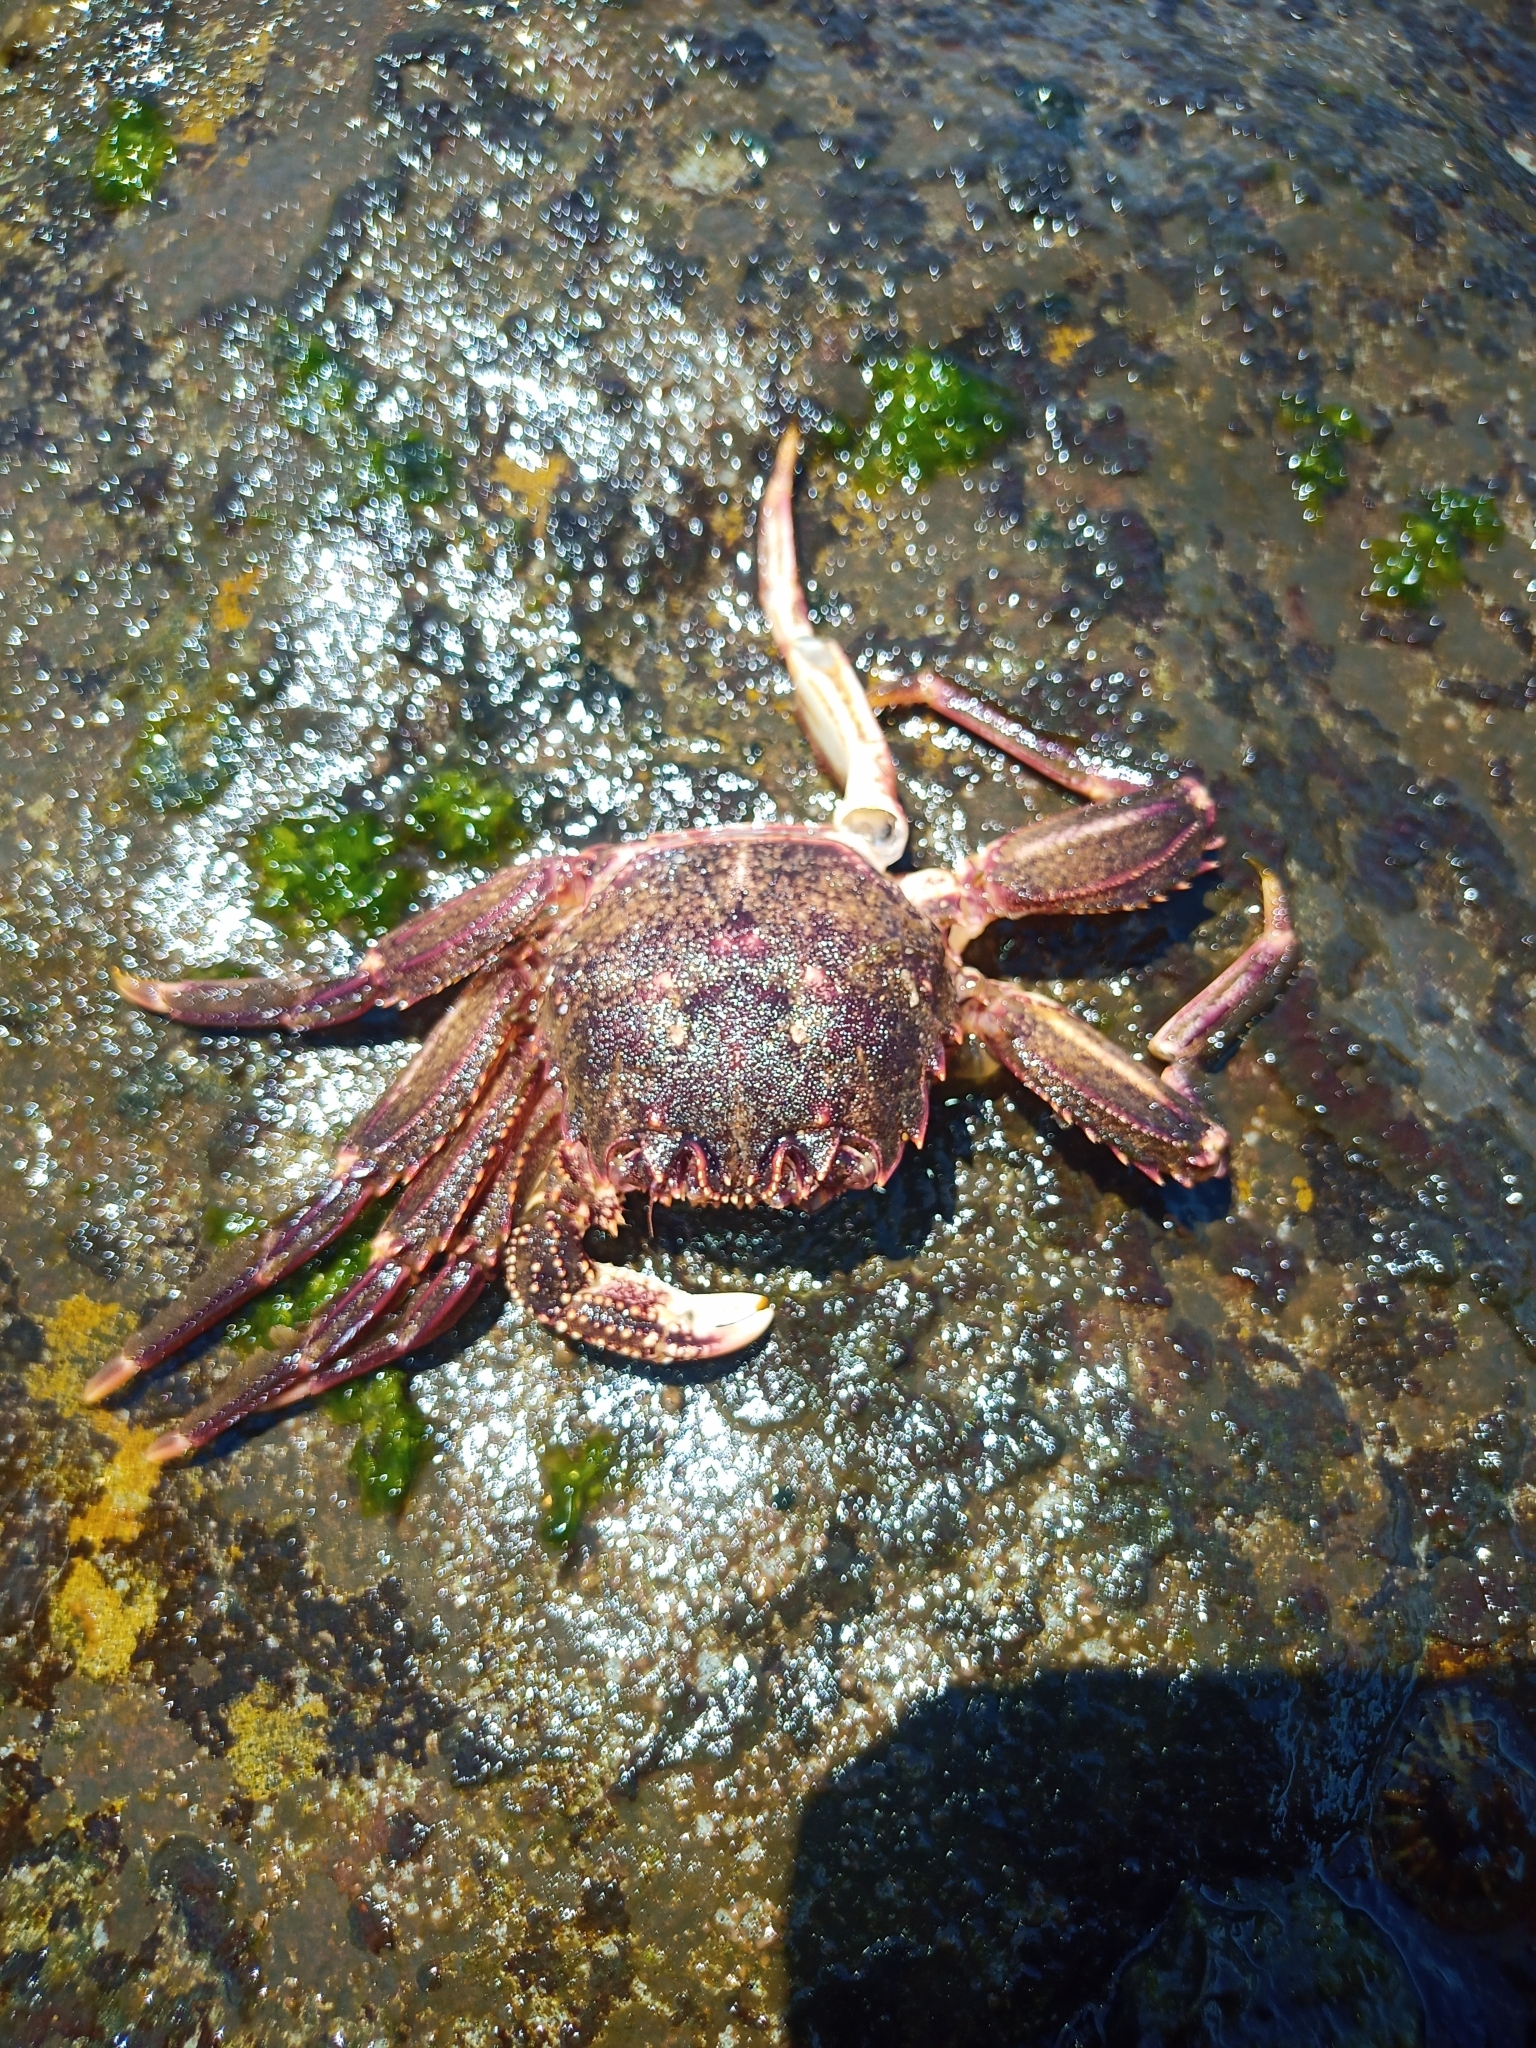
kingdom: Animalia
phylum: Arthropoda
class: Malacostraca
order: Decapoda
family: Plagusiidae
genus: Guinusia
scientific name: Guinusia chabrus
